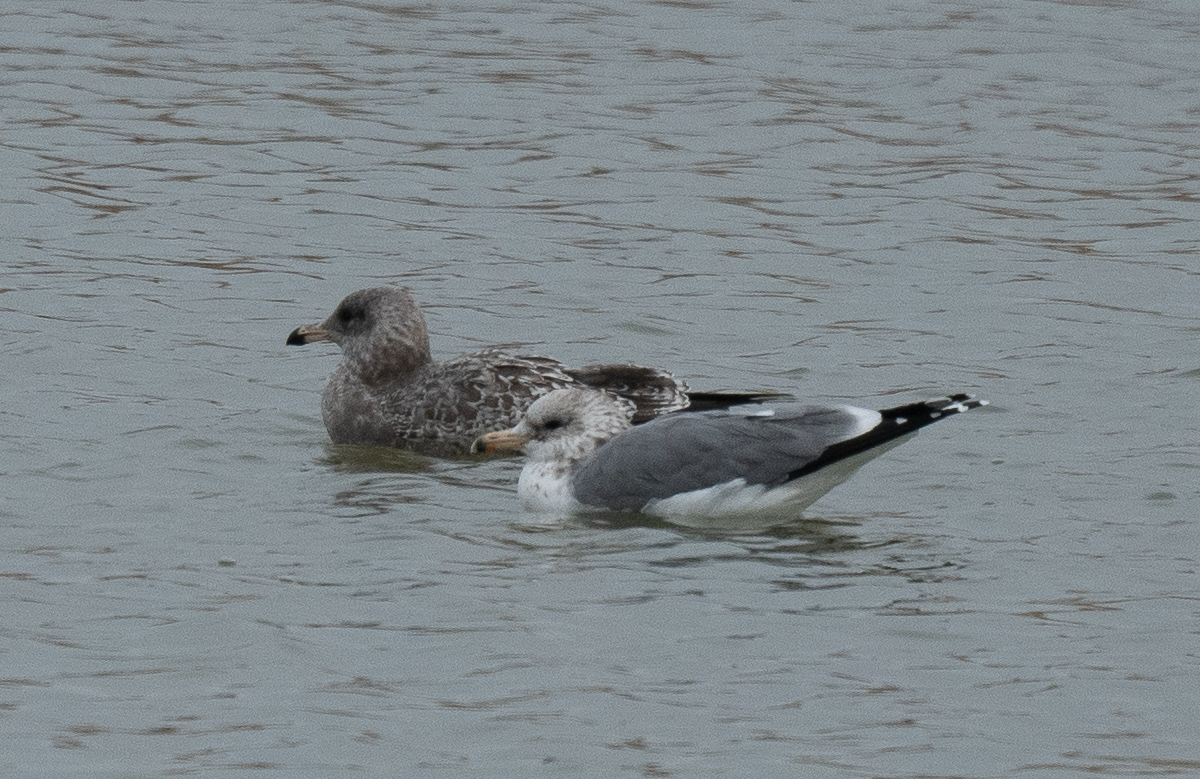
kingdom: Animalia
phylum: Chordata
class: Aves
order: Charadriiformes
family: Laridae
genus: Larus
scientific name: Larus californicus
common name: California gull
